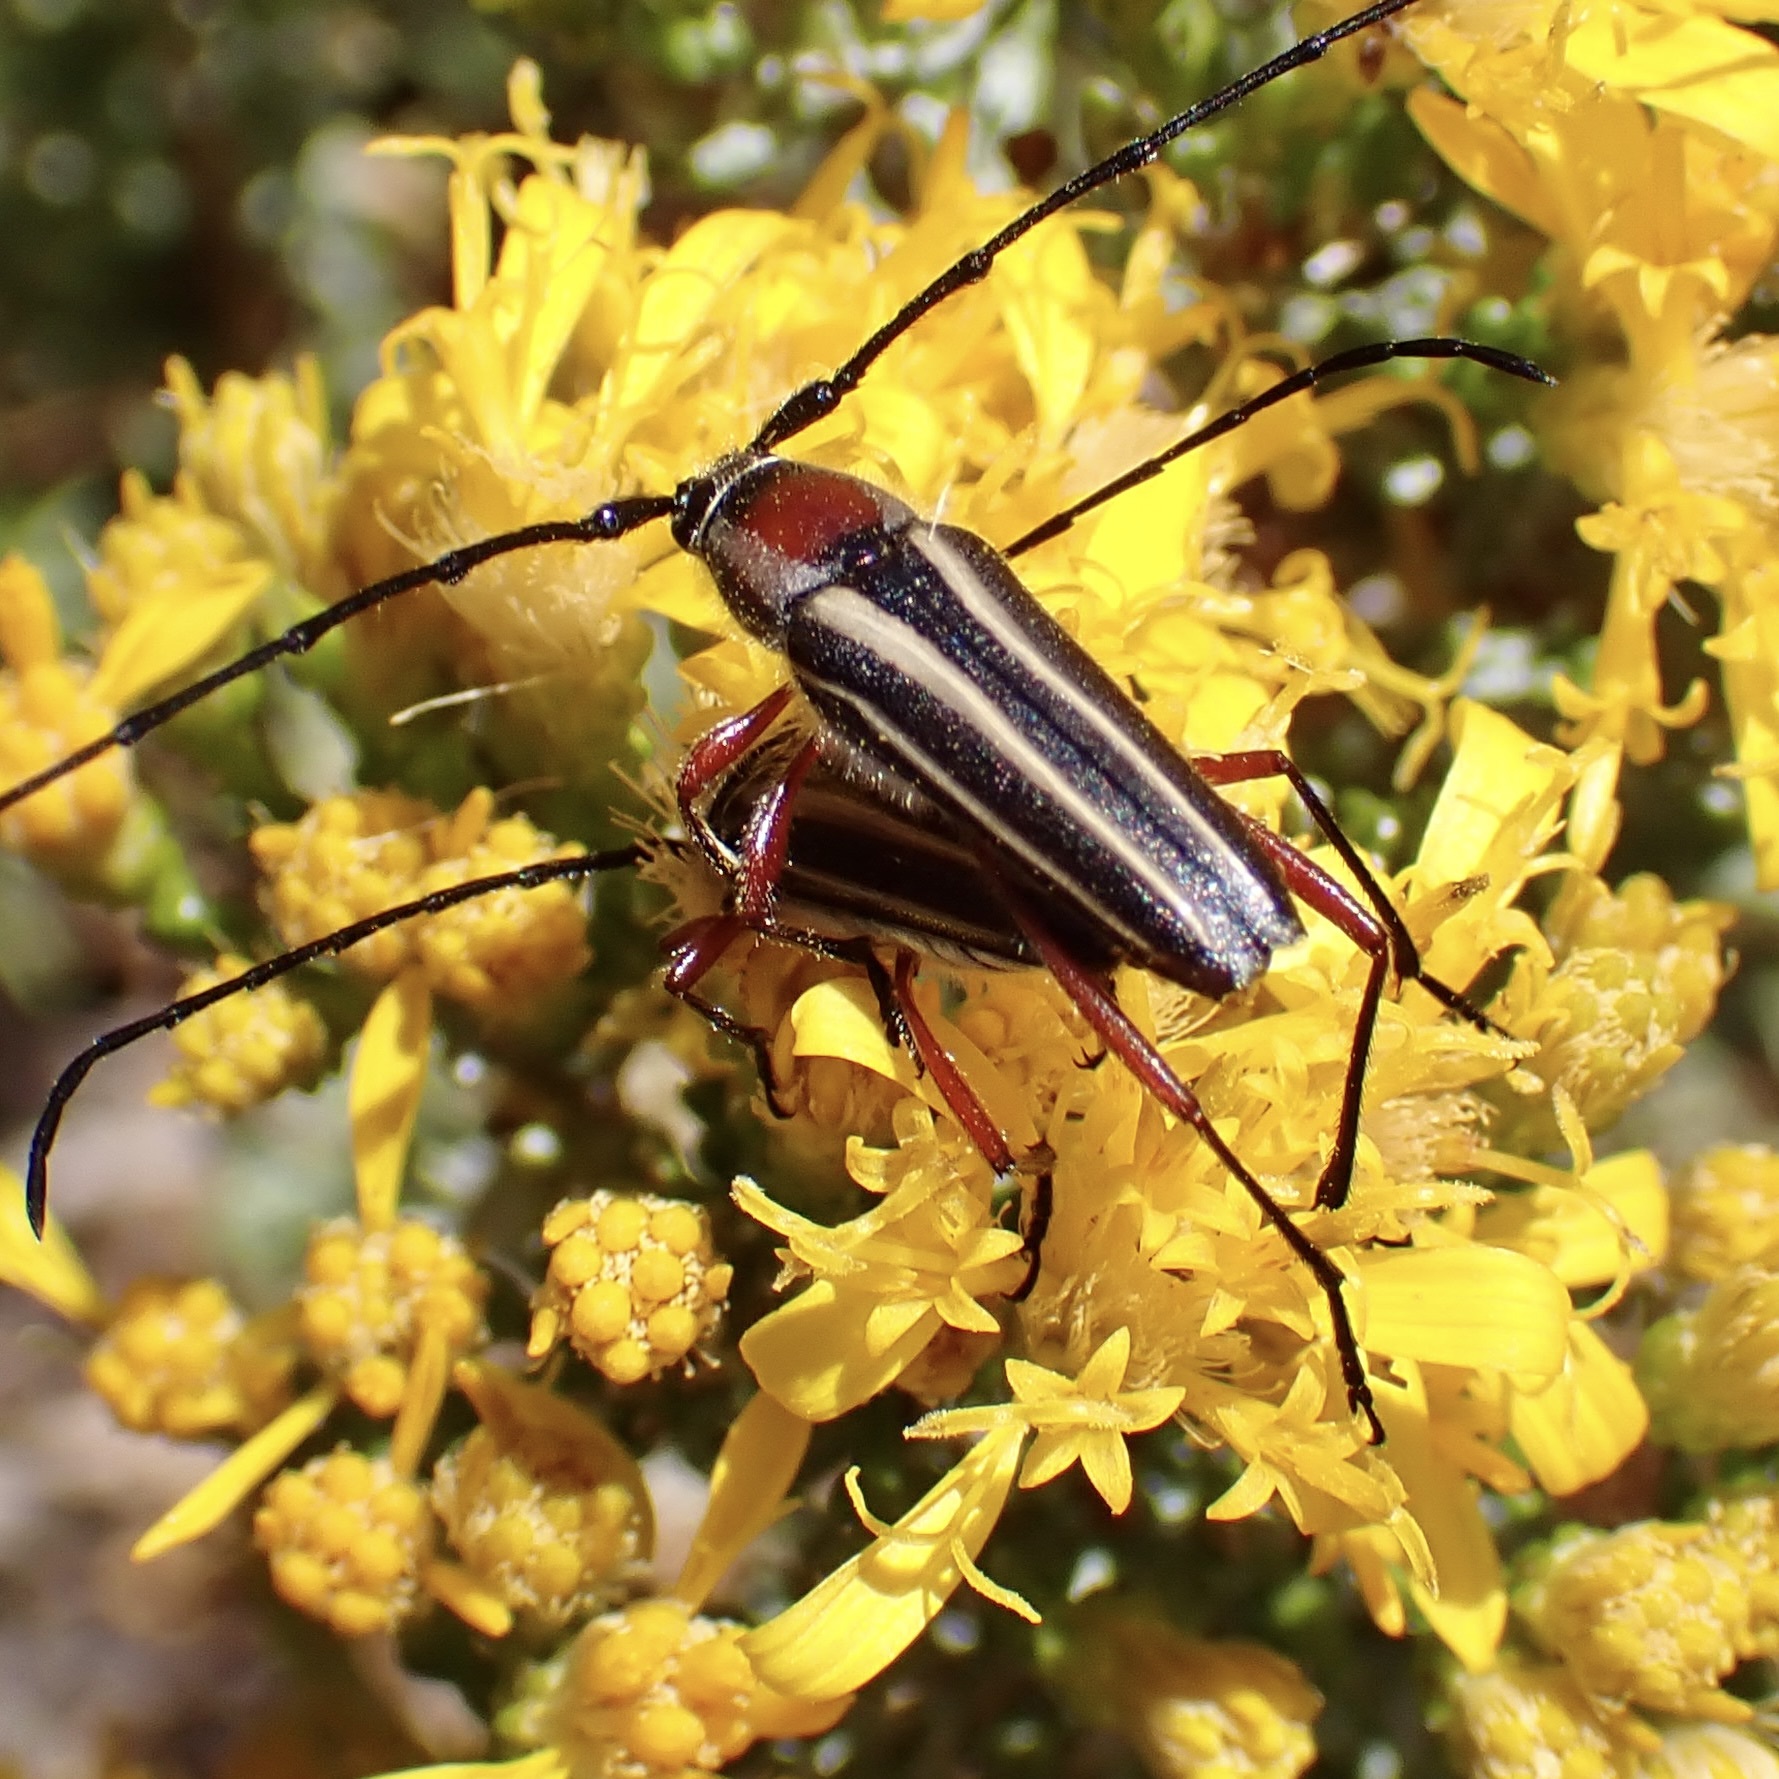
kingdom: Animalia
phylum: Arthropoda
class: Insecta
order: Coleoptera
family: Cerambycidae
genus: Sphaenothecus
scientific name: Sphaenothecus bilineatus
